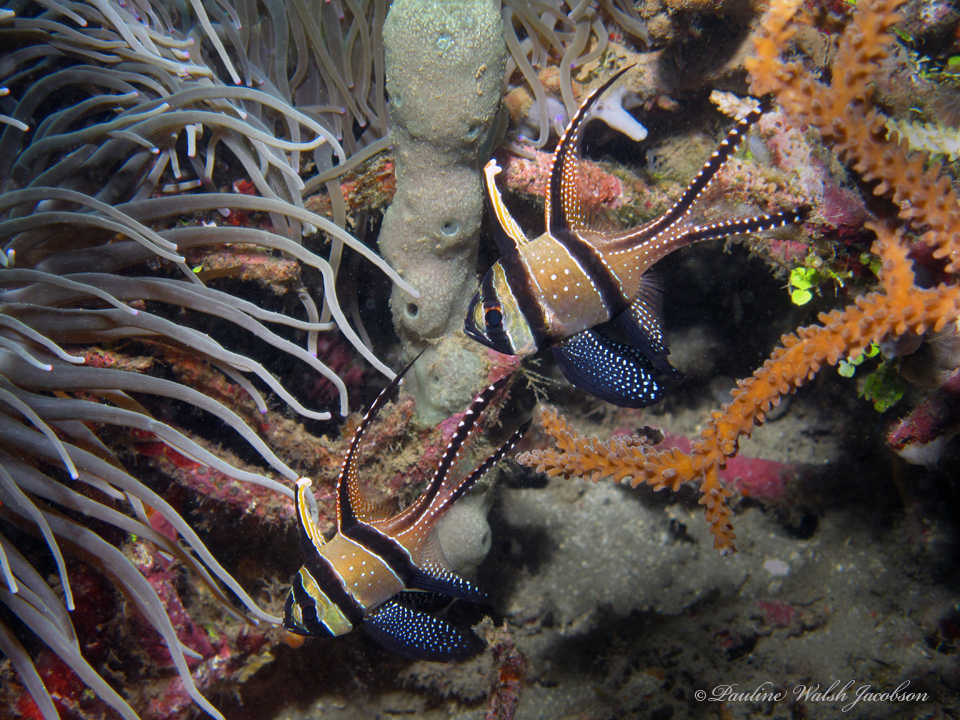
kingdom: Animalia
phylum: Chordata
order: Perciformes
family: Apogonidae
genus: Pterapogon
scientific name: Pterapogon kauderni
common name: Banggai cardinalfish
